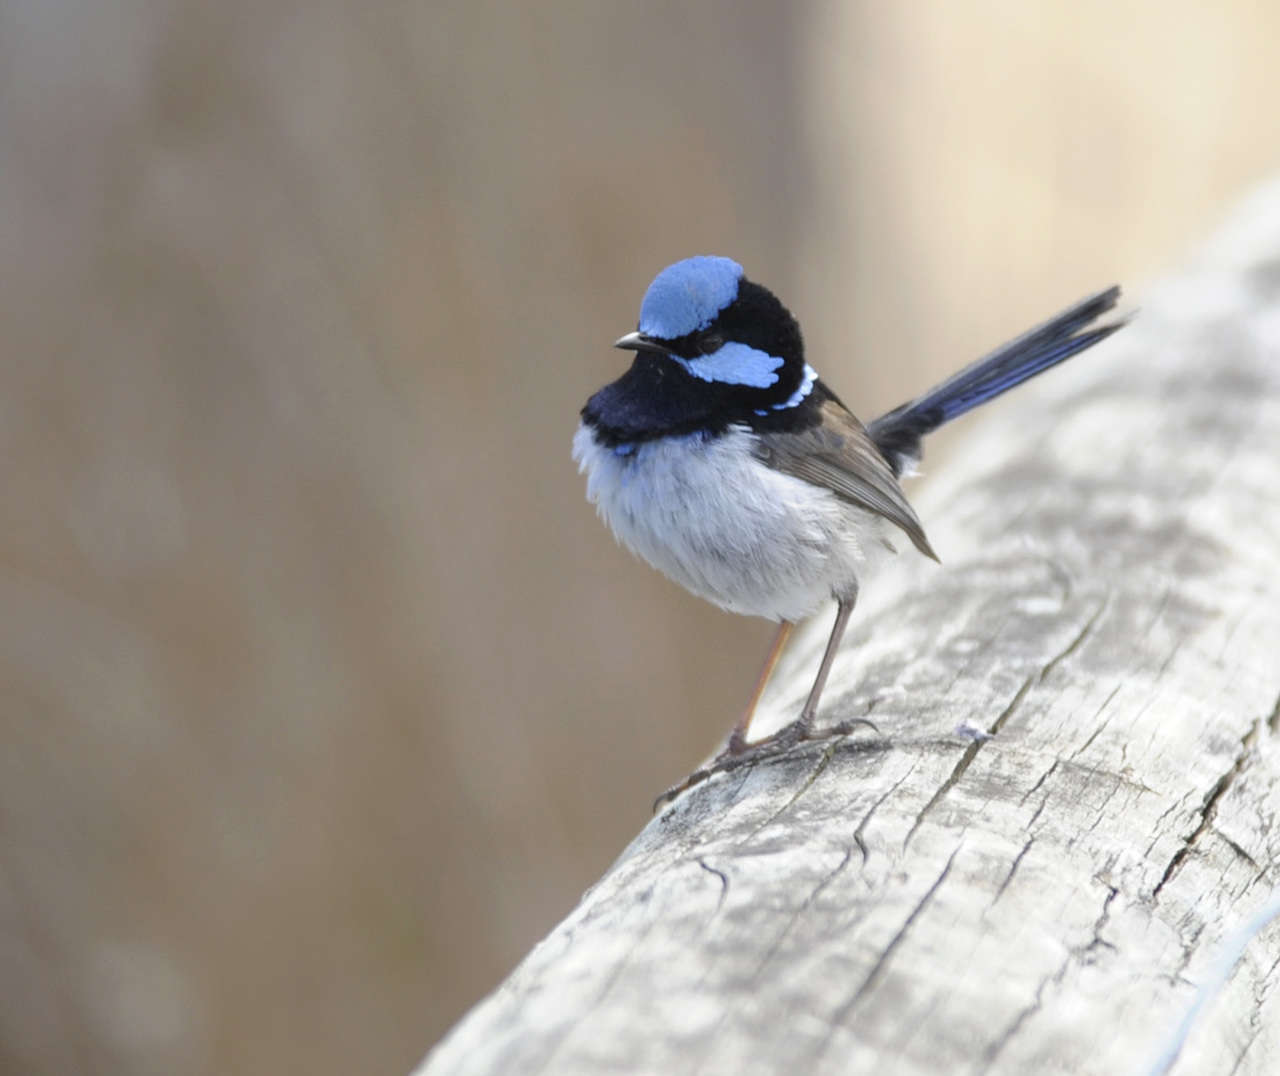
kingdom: Animalia
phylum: Chordata
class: Aves
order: Passeriformes
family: Maluridae
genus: Malurus
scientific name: Malurus cyaneus
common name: Superb fairywren
